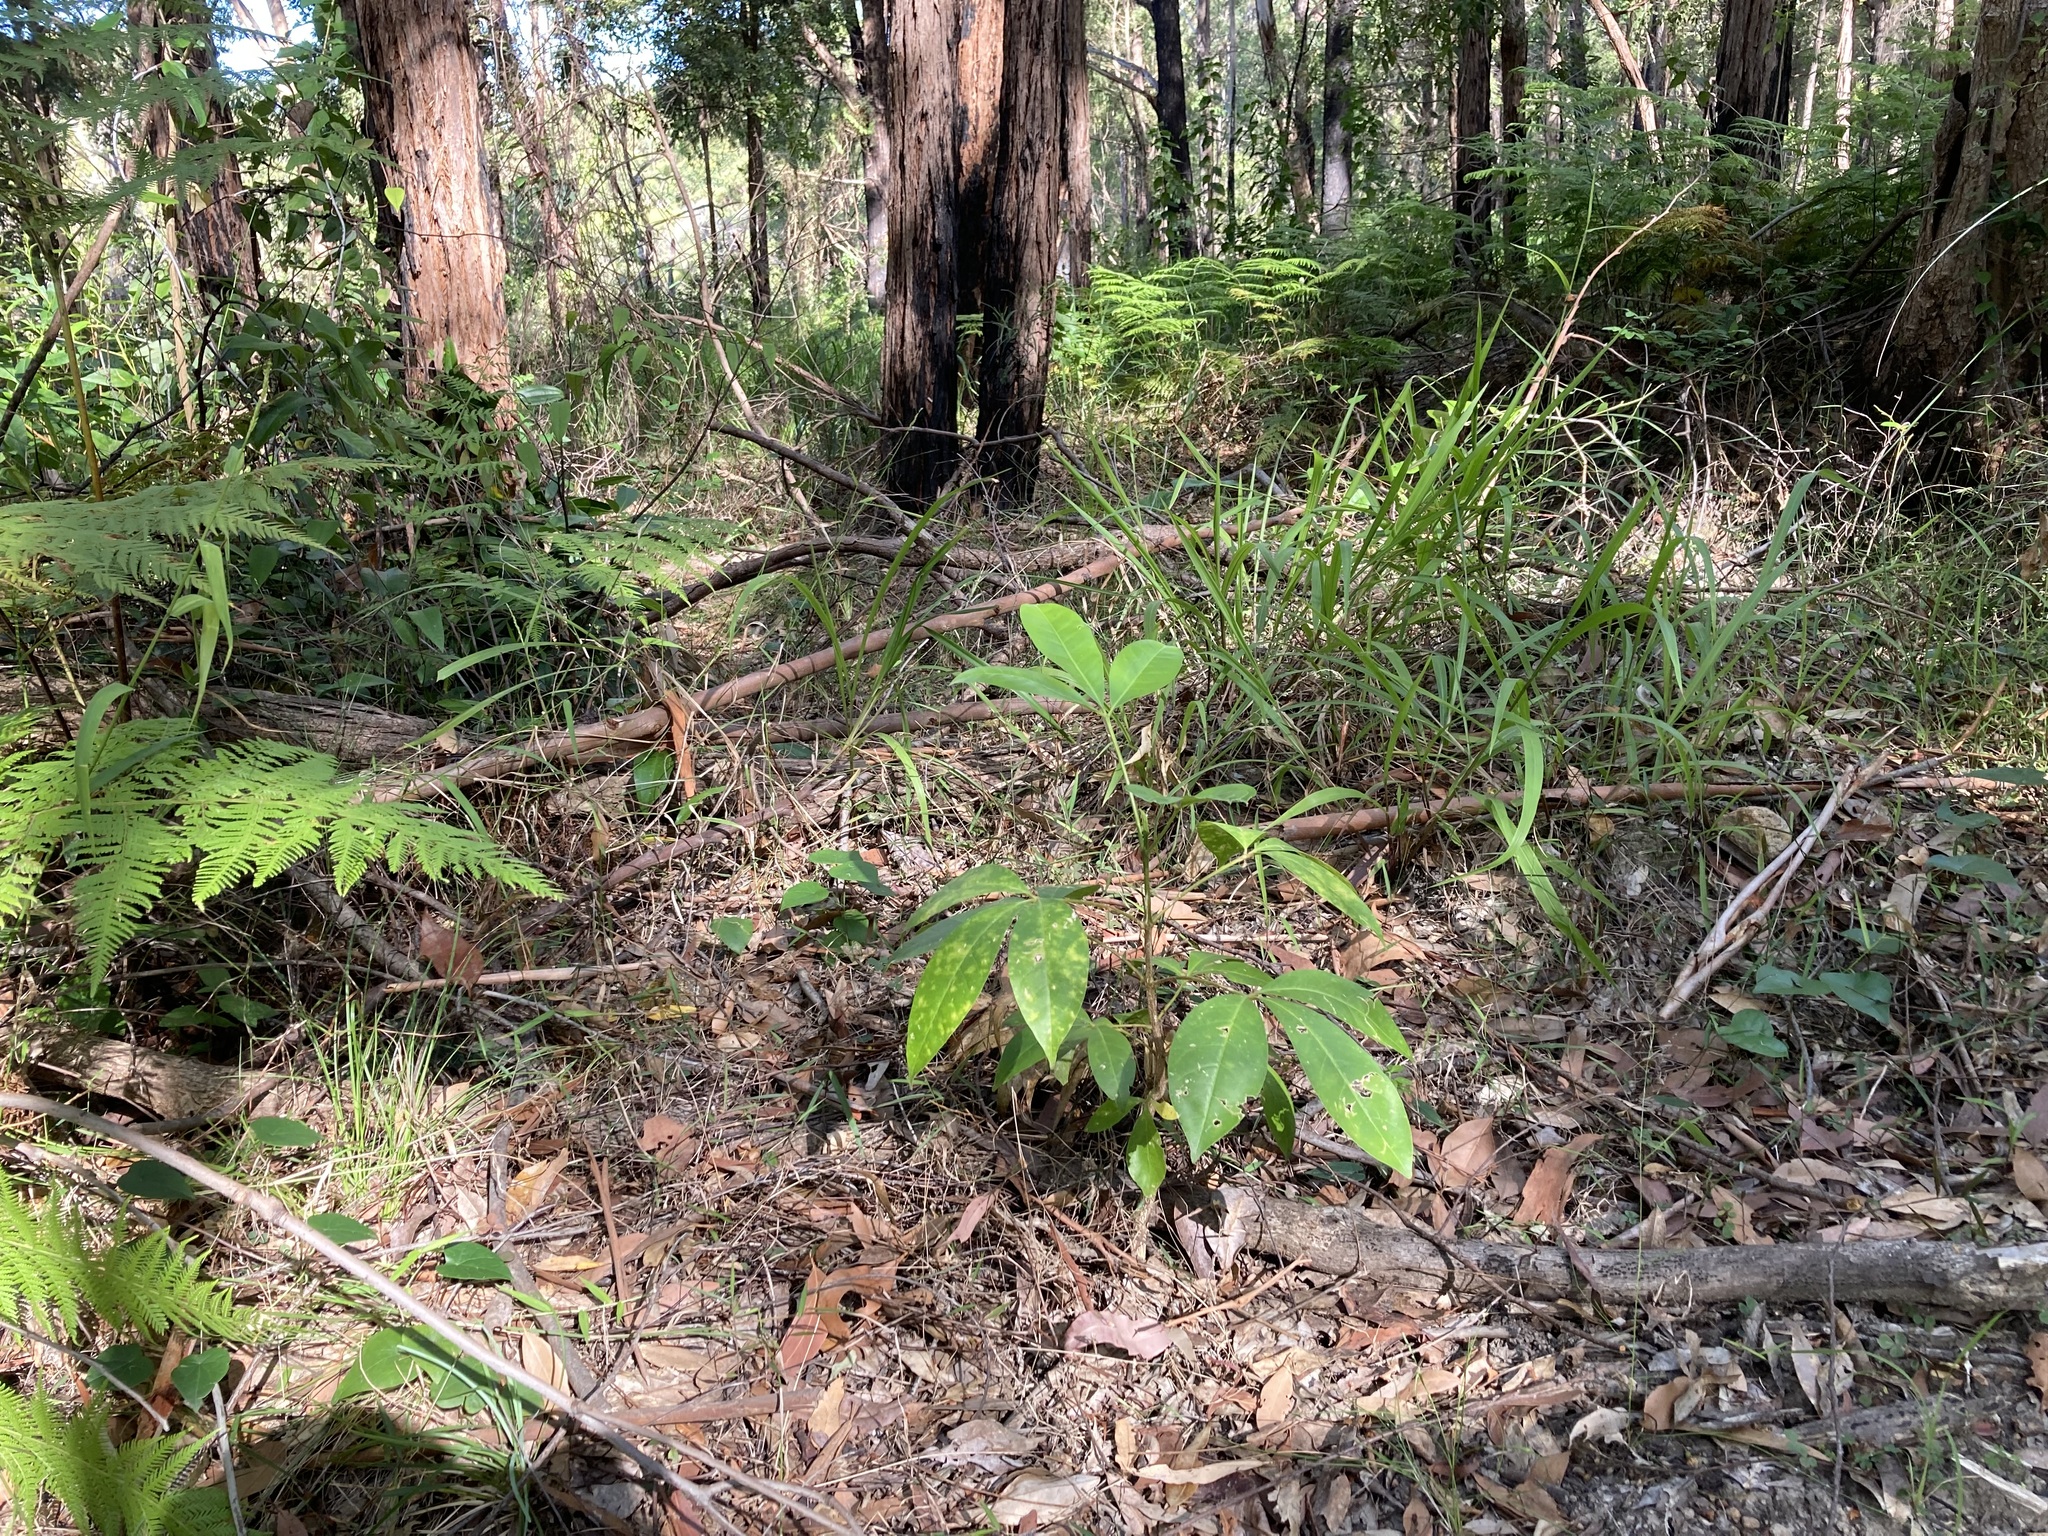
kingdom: Plantae
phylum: Tracheophyta
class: Magnoliopsida
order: Sapindales
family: Rutaceae
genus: Melicope
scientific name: Melicope elleryana
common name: Pink euodia
